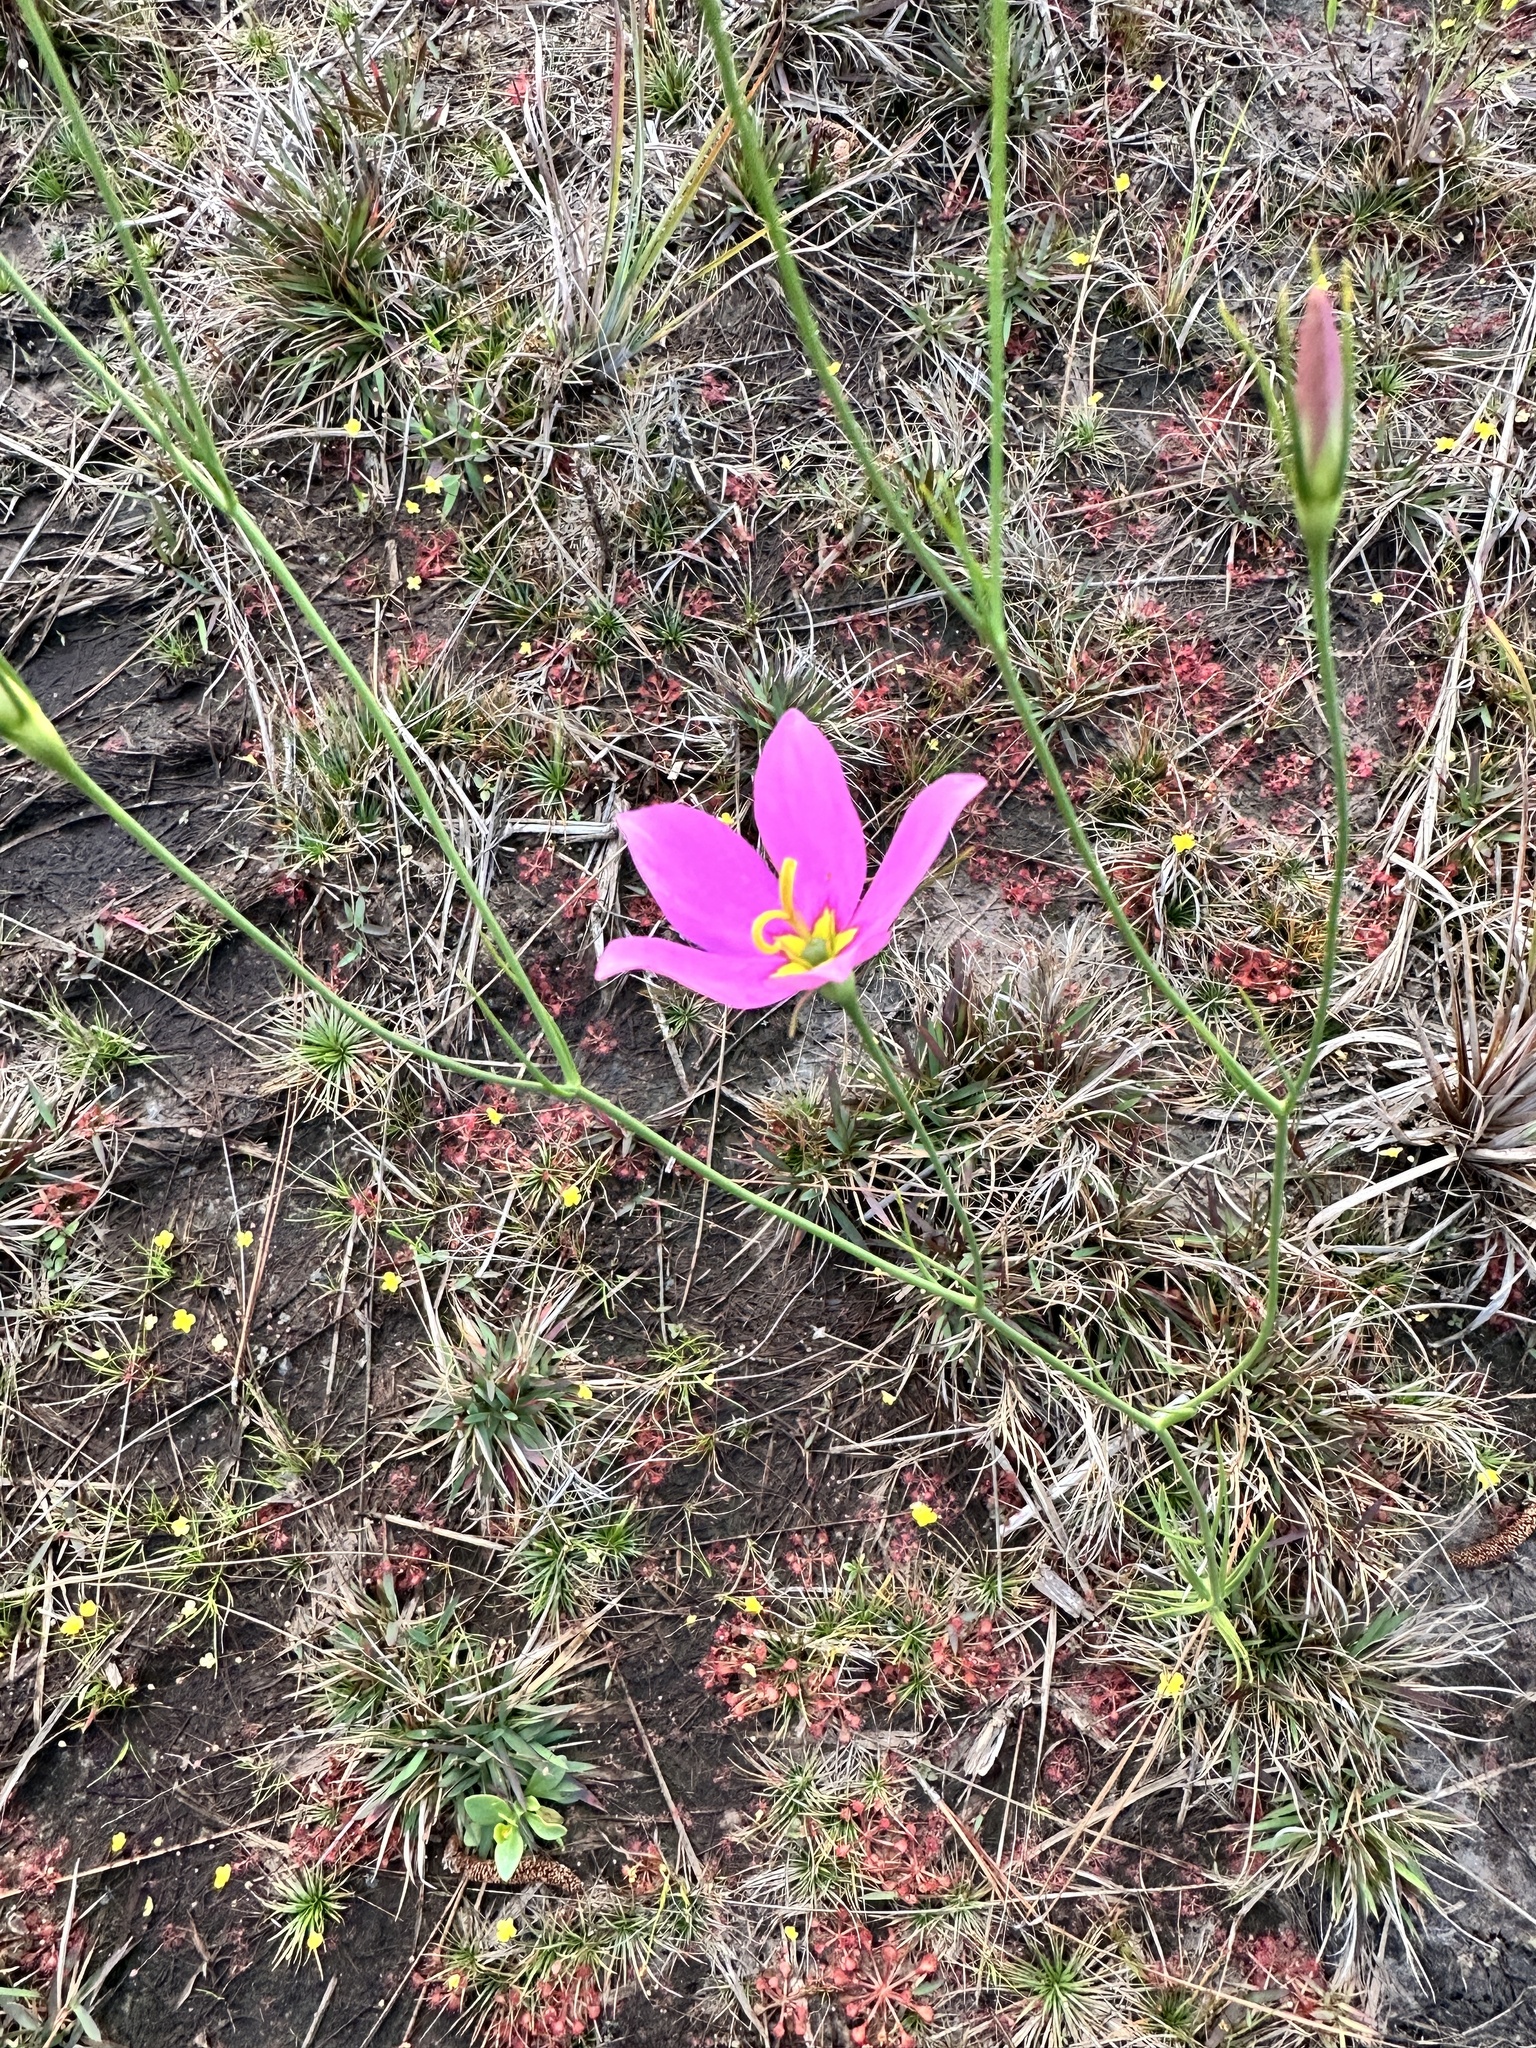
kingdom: Plantae
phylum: Tracheophyta
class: Magnoliopsida
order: Gentianales
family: Gentianaceae
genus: Sabatia
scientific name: Sabatia grandiflora
